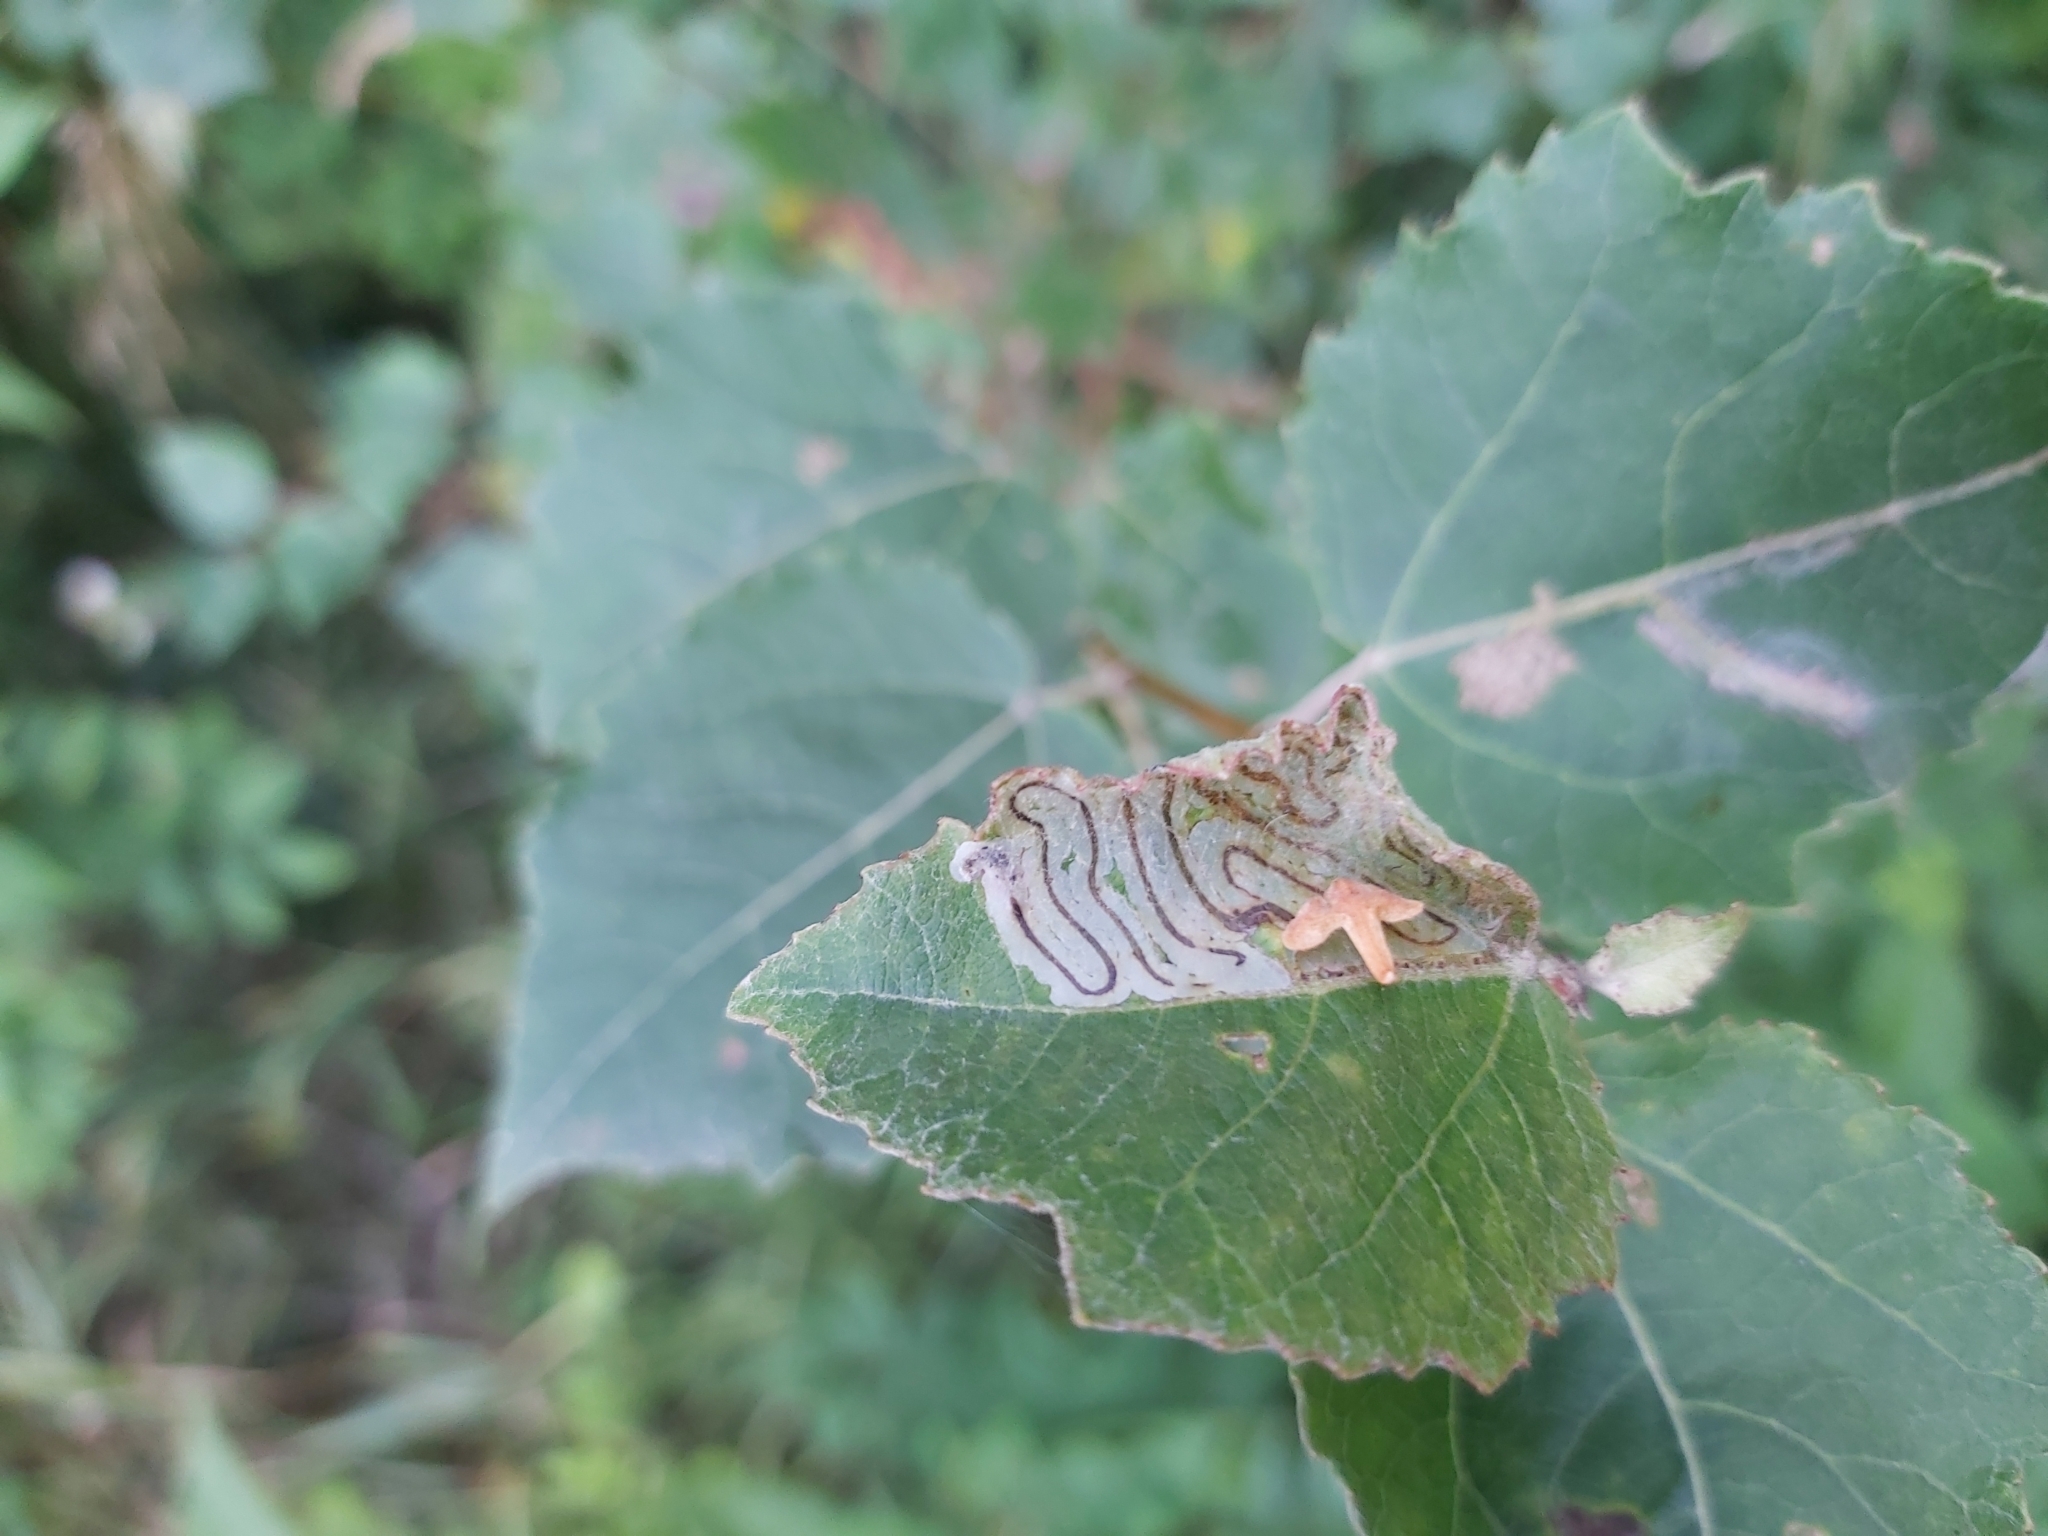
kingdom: Animalia
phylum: Arthropoda
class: Insecta
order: Lepidoptera
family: Gracillariidae
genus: Phyllocnistis
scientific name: Phyllocnistis labyrinthella
